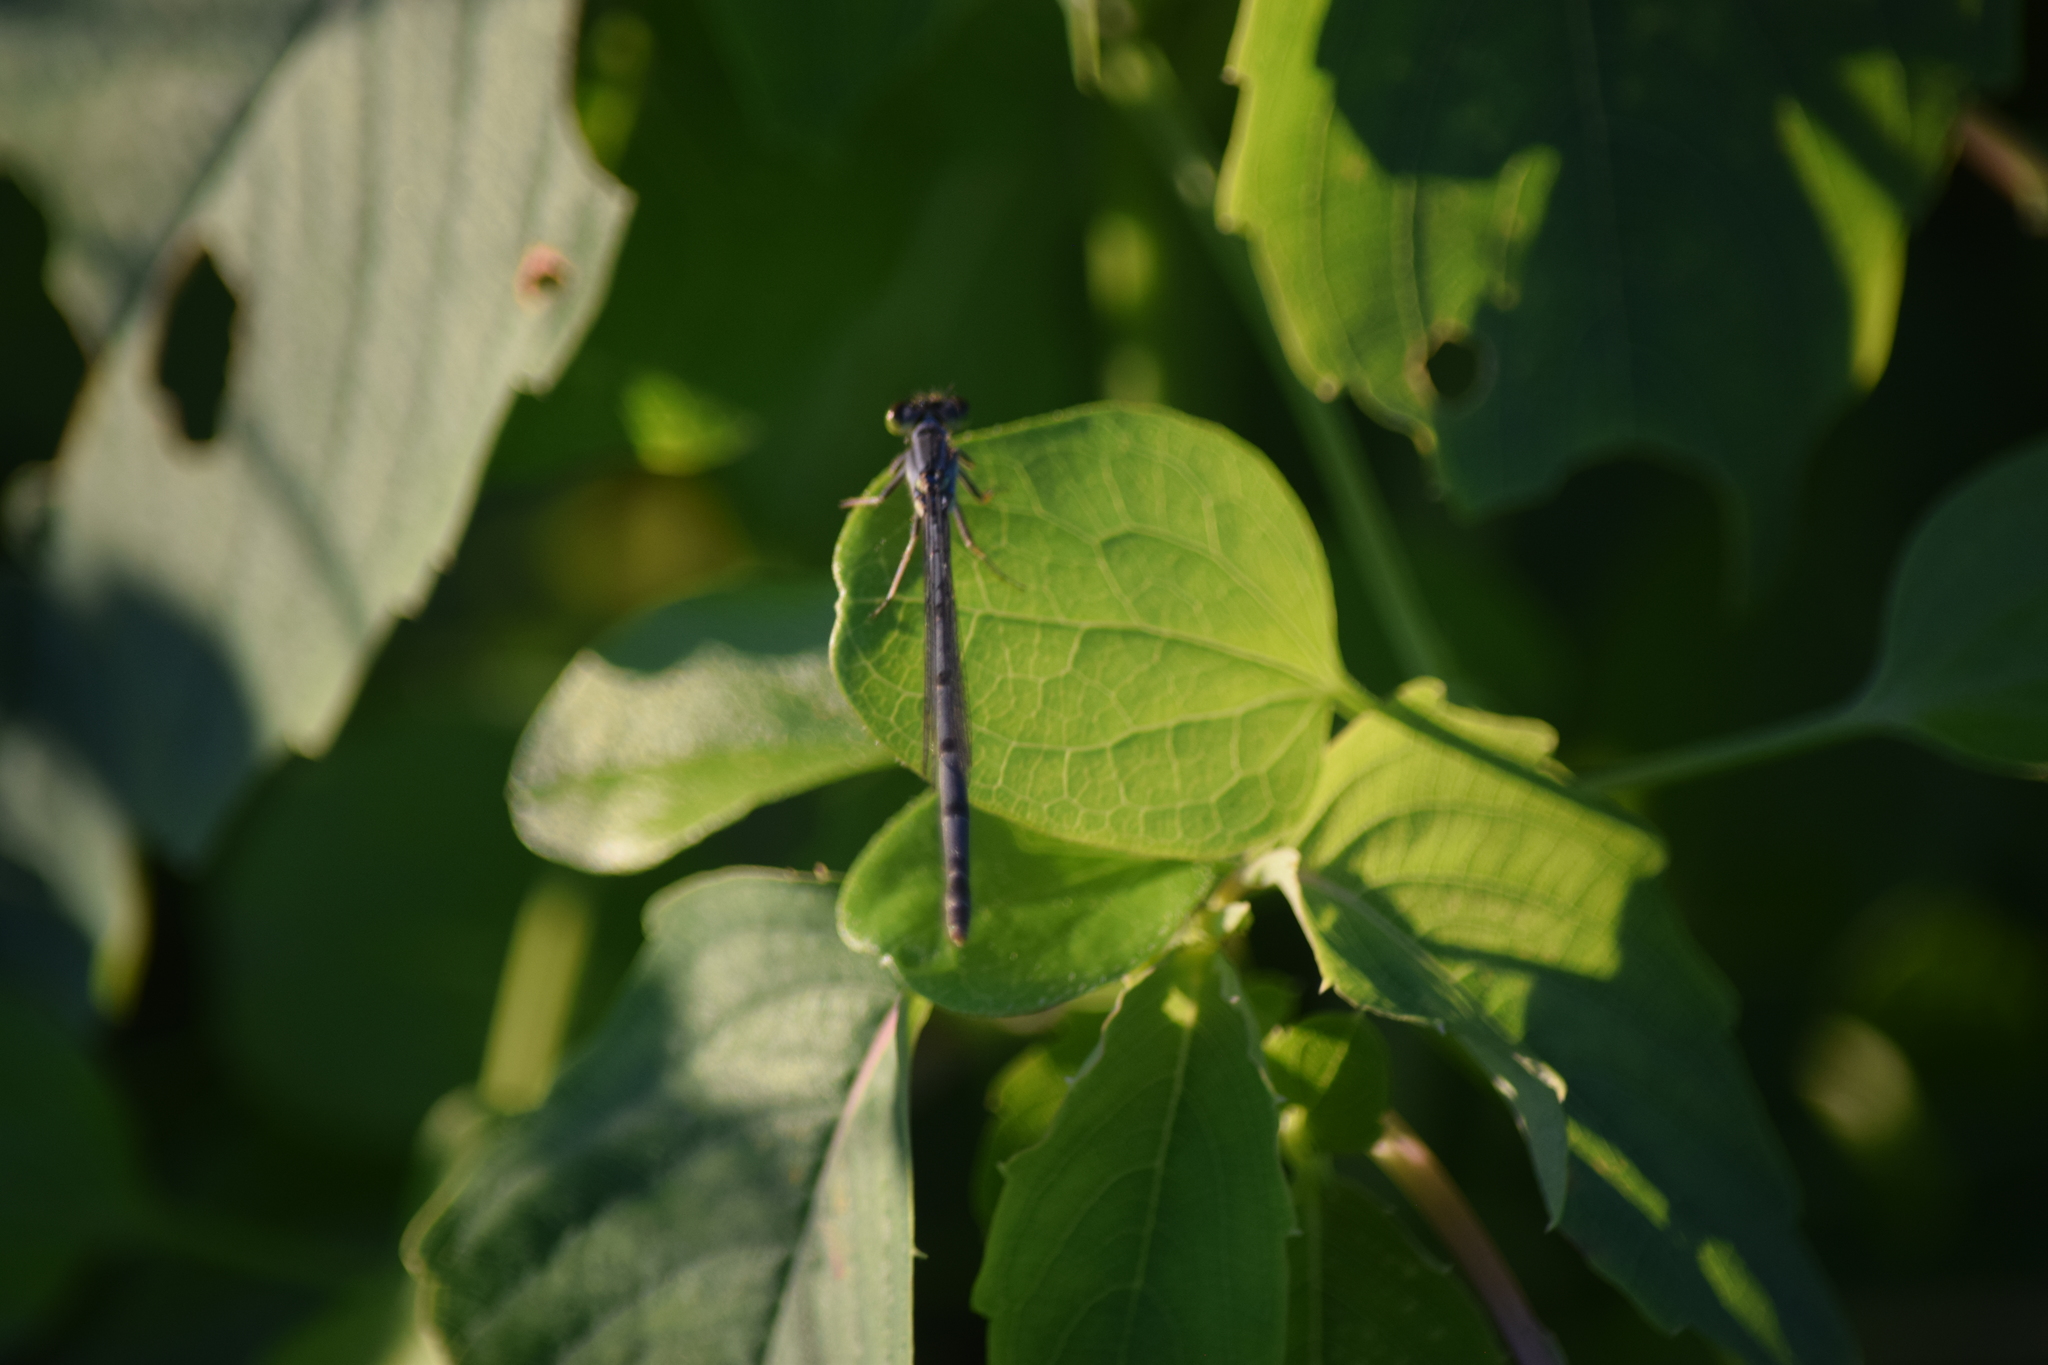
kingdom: Animalia
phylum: Arthropoda
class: Insecta
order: Odonata
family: Coenagrionidae
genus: Ischnura
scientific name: Ischnura verticalis
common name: Eastern forktail
